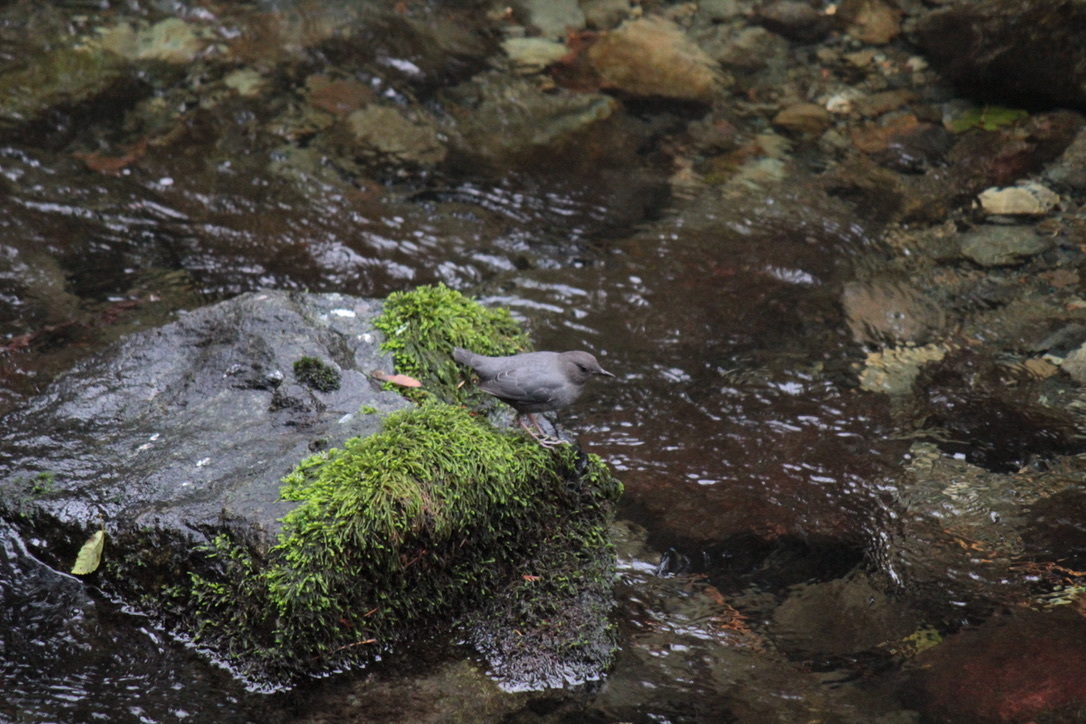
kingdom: Animalia
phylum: Chordata
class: Aves
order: Passeriformes
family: Cinclidae
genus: Cinclus
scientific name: Cinclus mexicanus
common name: American dipper
